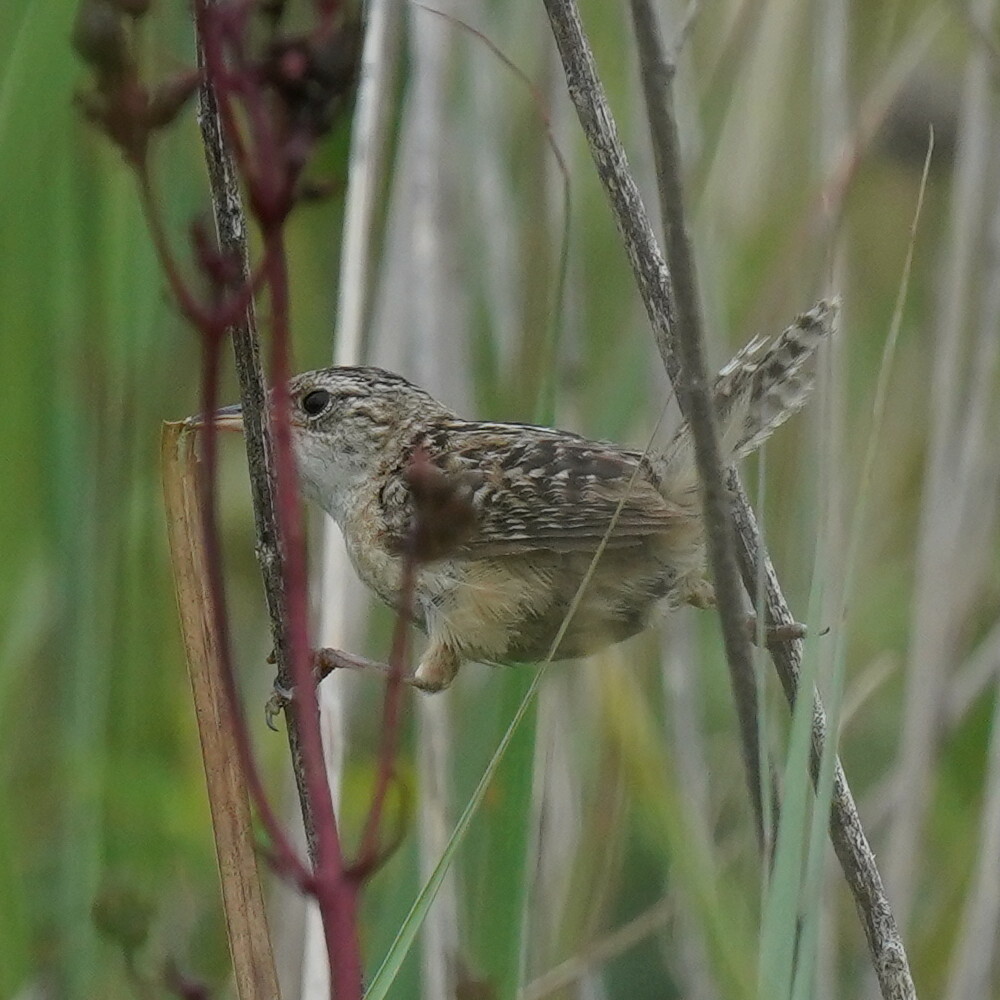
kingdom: Animalia
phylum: Chordata
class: Aves
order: Passeriformes
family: Troglodytidae
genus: Cistothorus
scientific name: Cistothorus platensis
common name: Sedge wren
